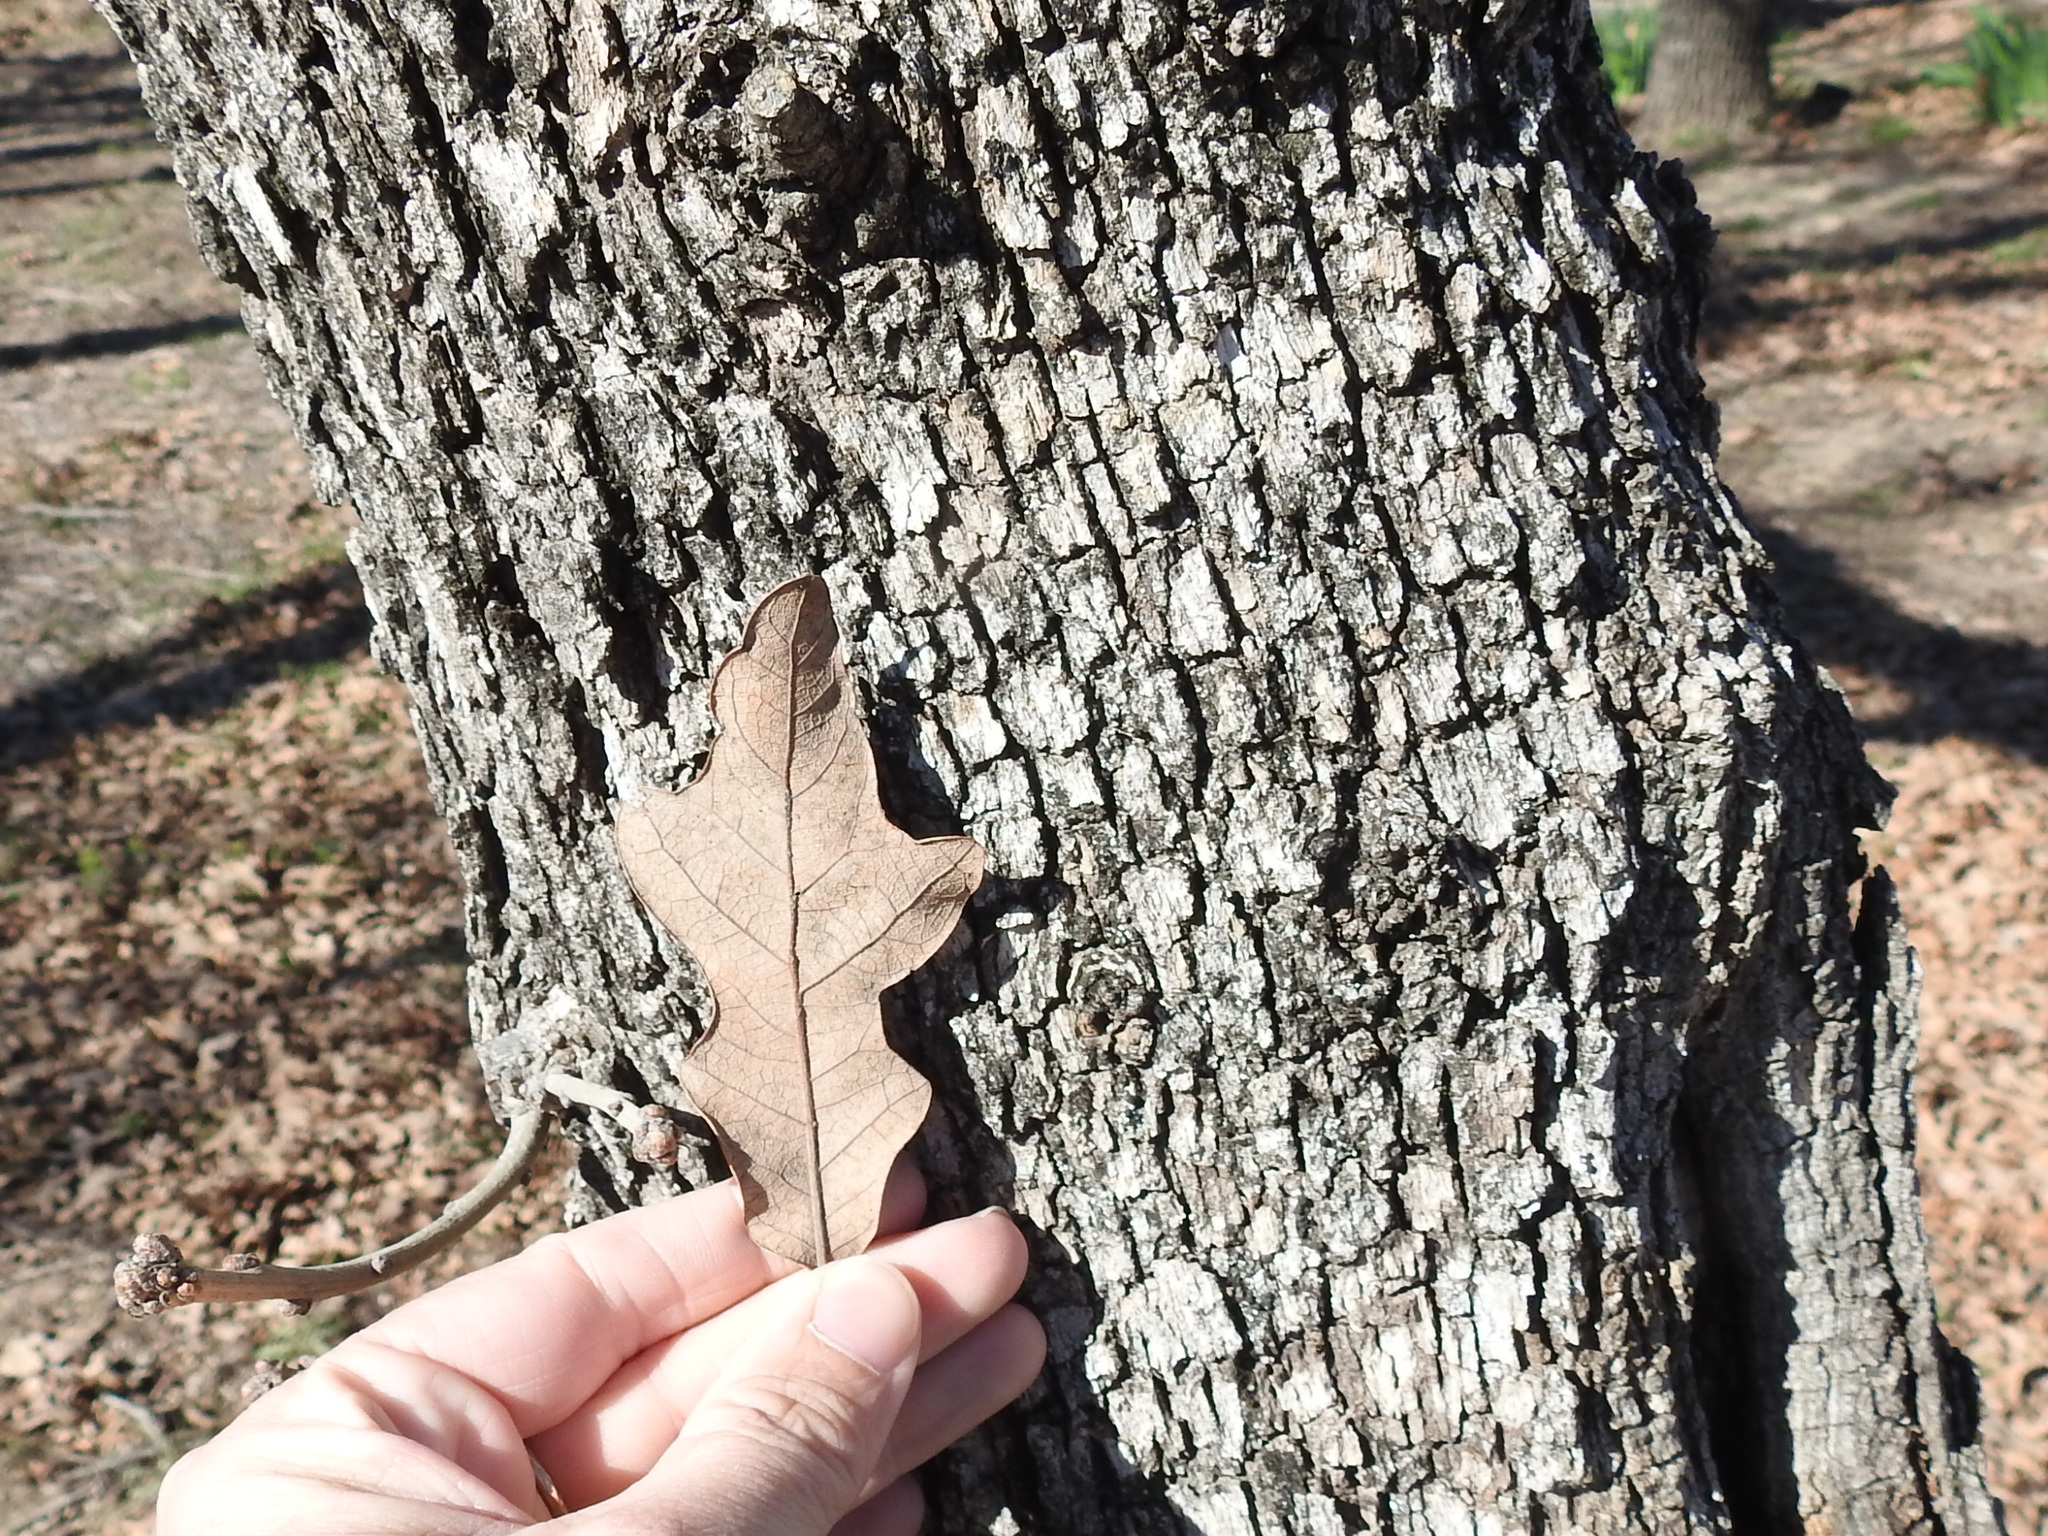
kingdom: Plantae
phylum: Tracheophyta
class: Magnoliopsida
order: Fagales
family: Fagaceae
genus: Quercus
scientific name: Quercus stellata
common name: Post oak
